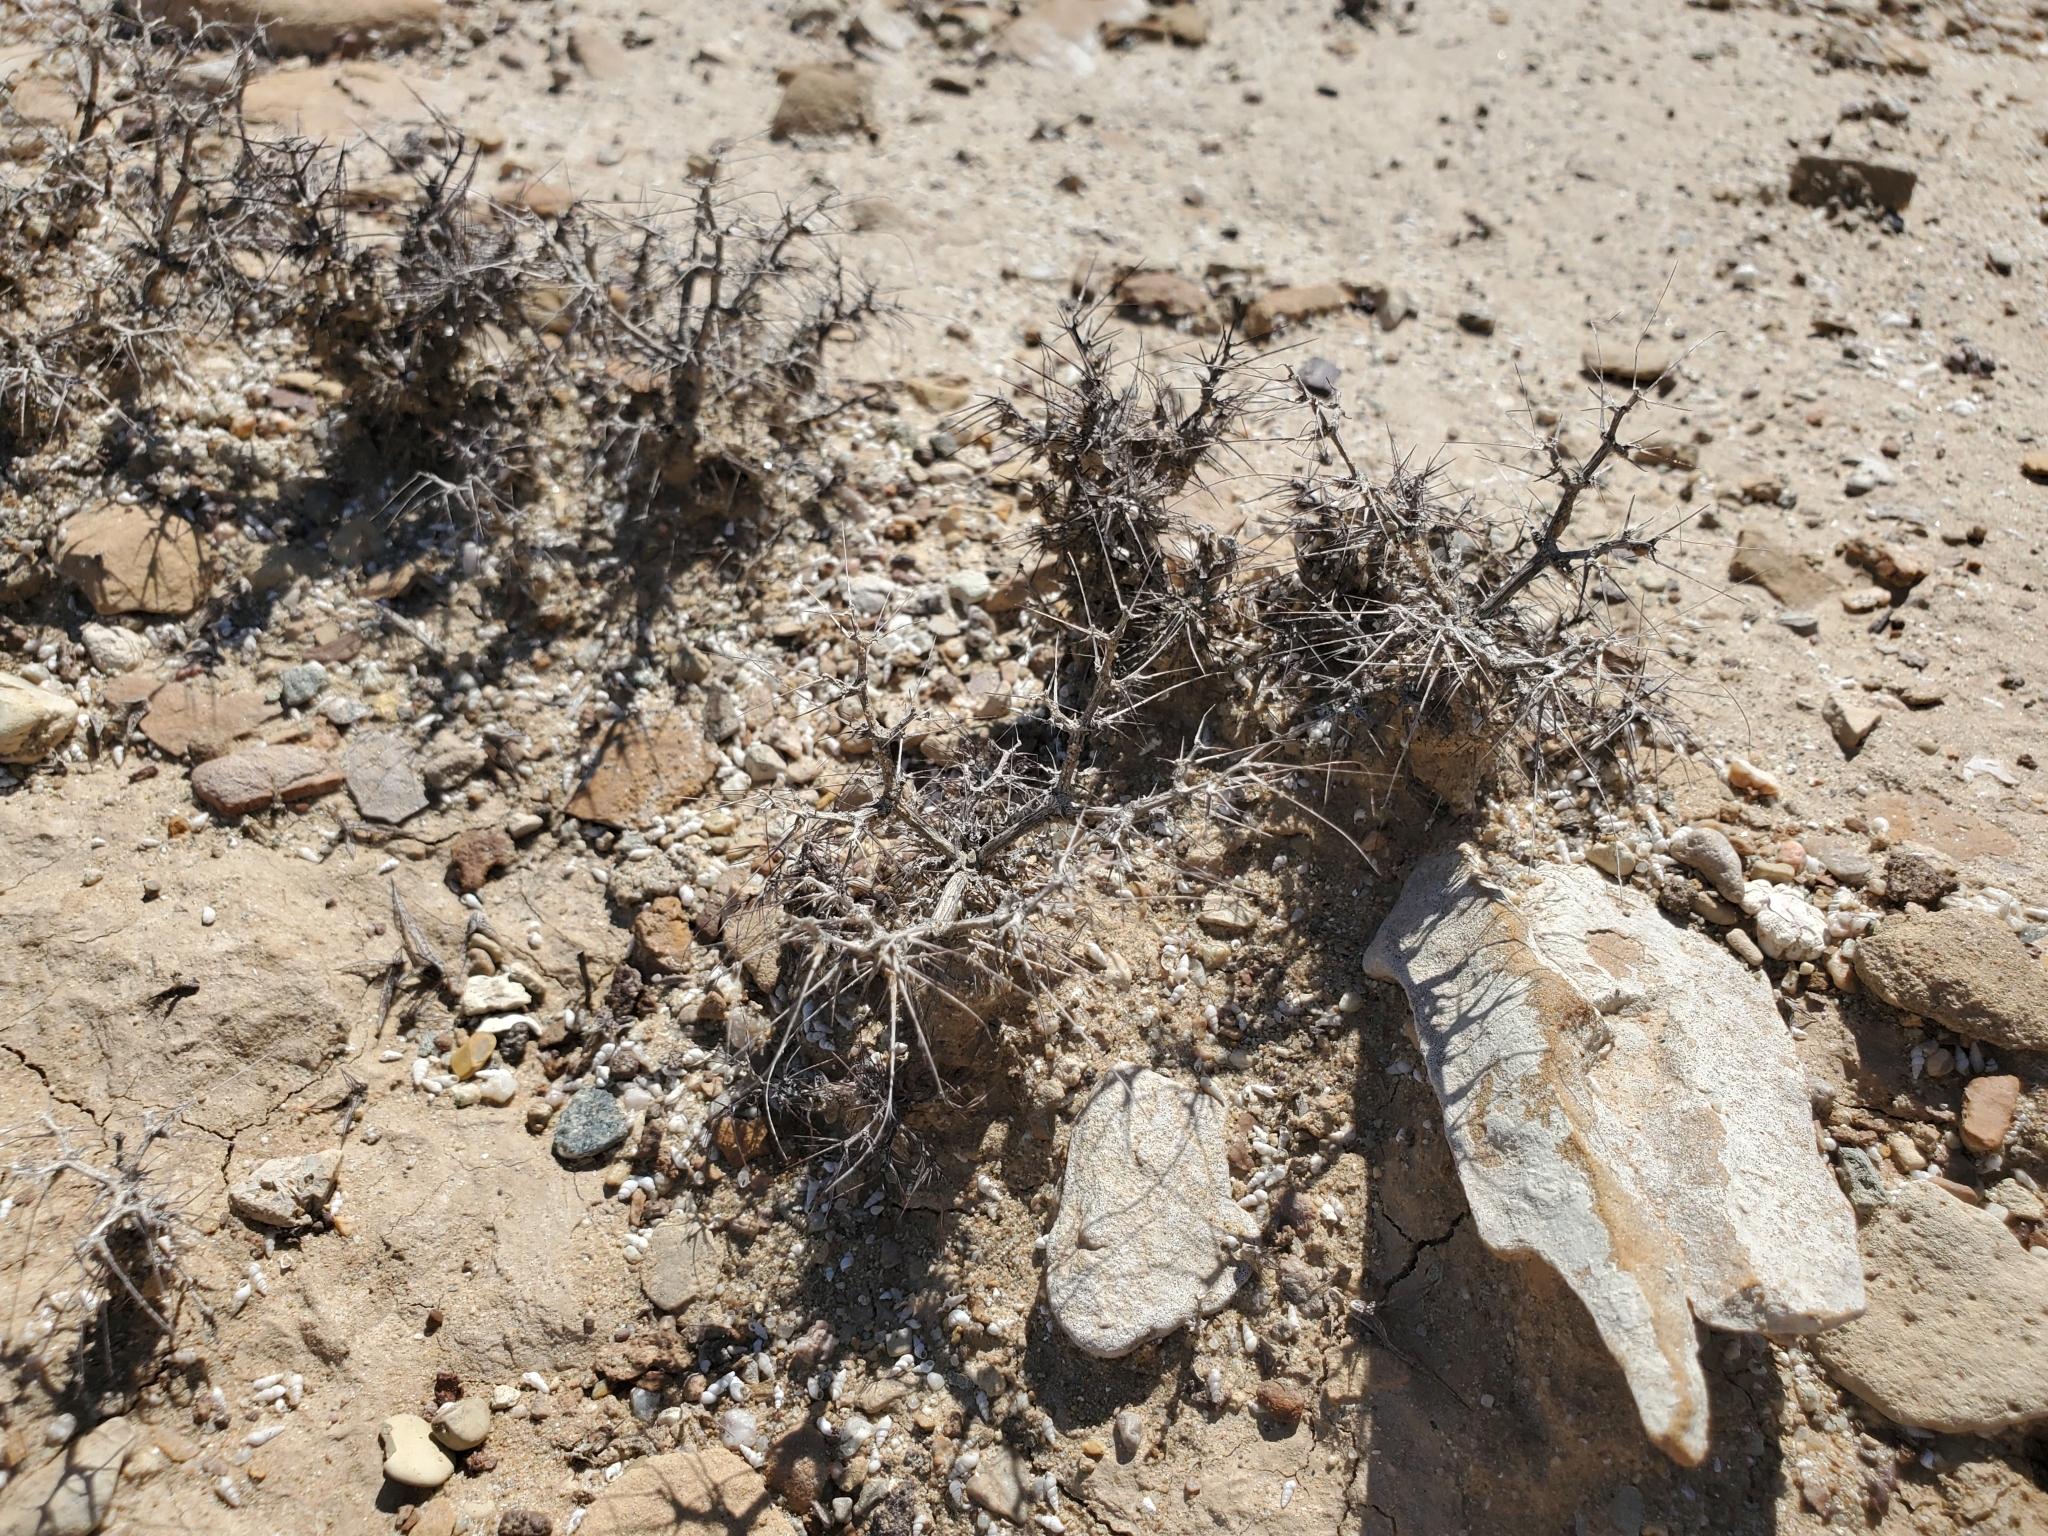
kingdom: Plantae
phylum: Tracheophyta
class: Magnoliopsida
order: Caryophyllales
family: Polygonaceae
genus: Chorizanthe
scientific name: Chorizanthe rigida
